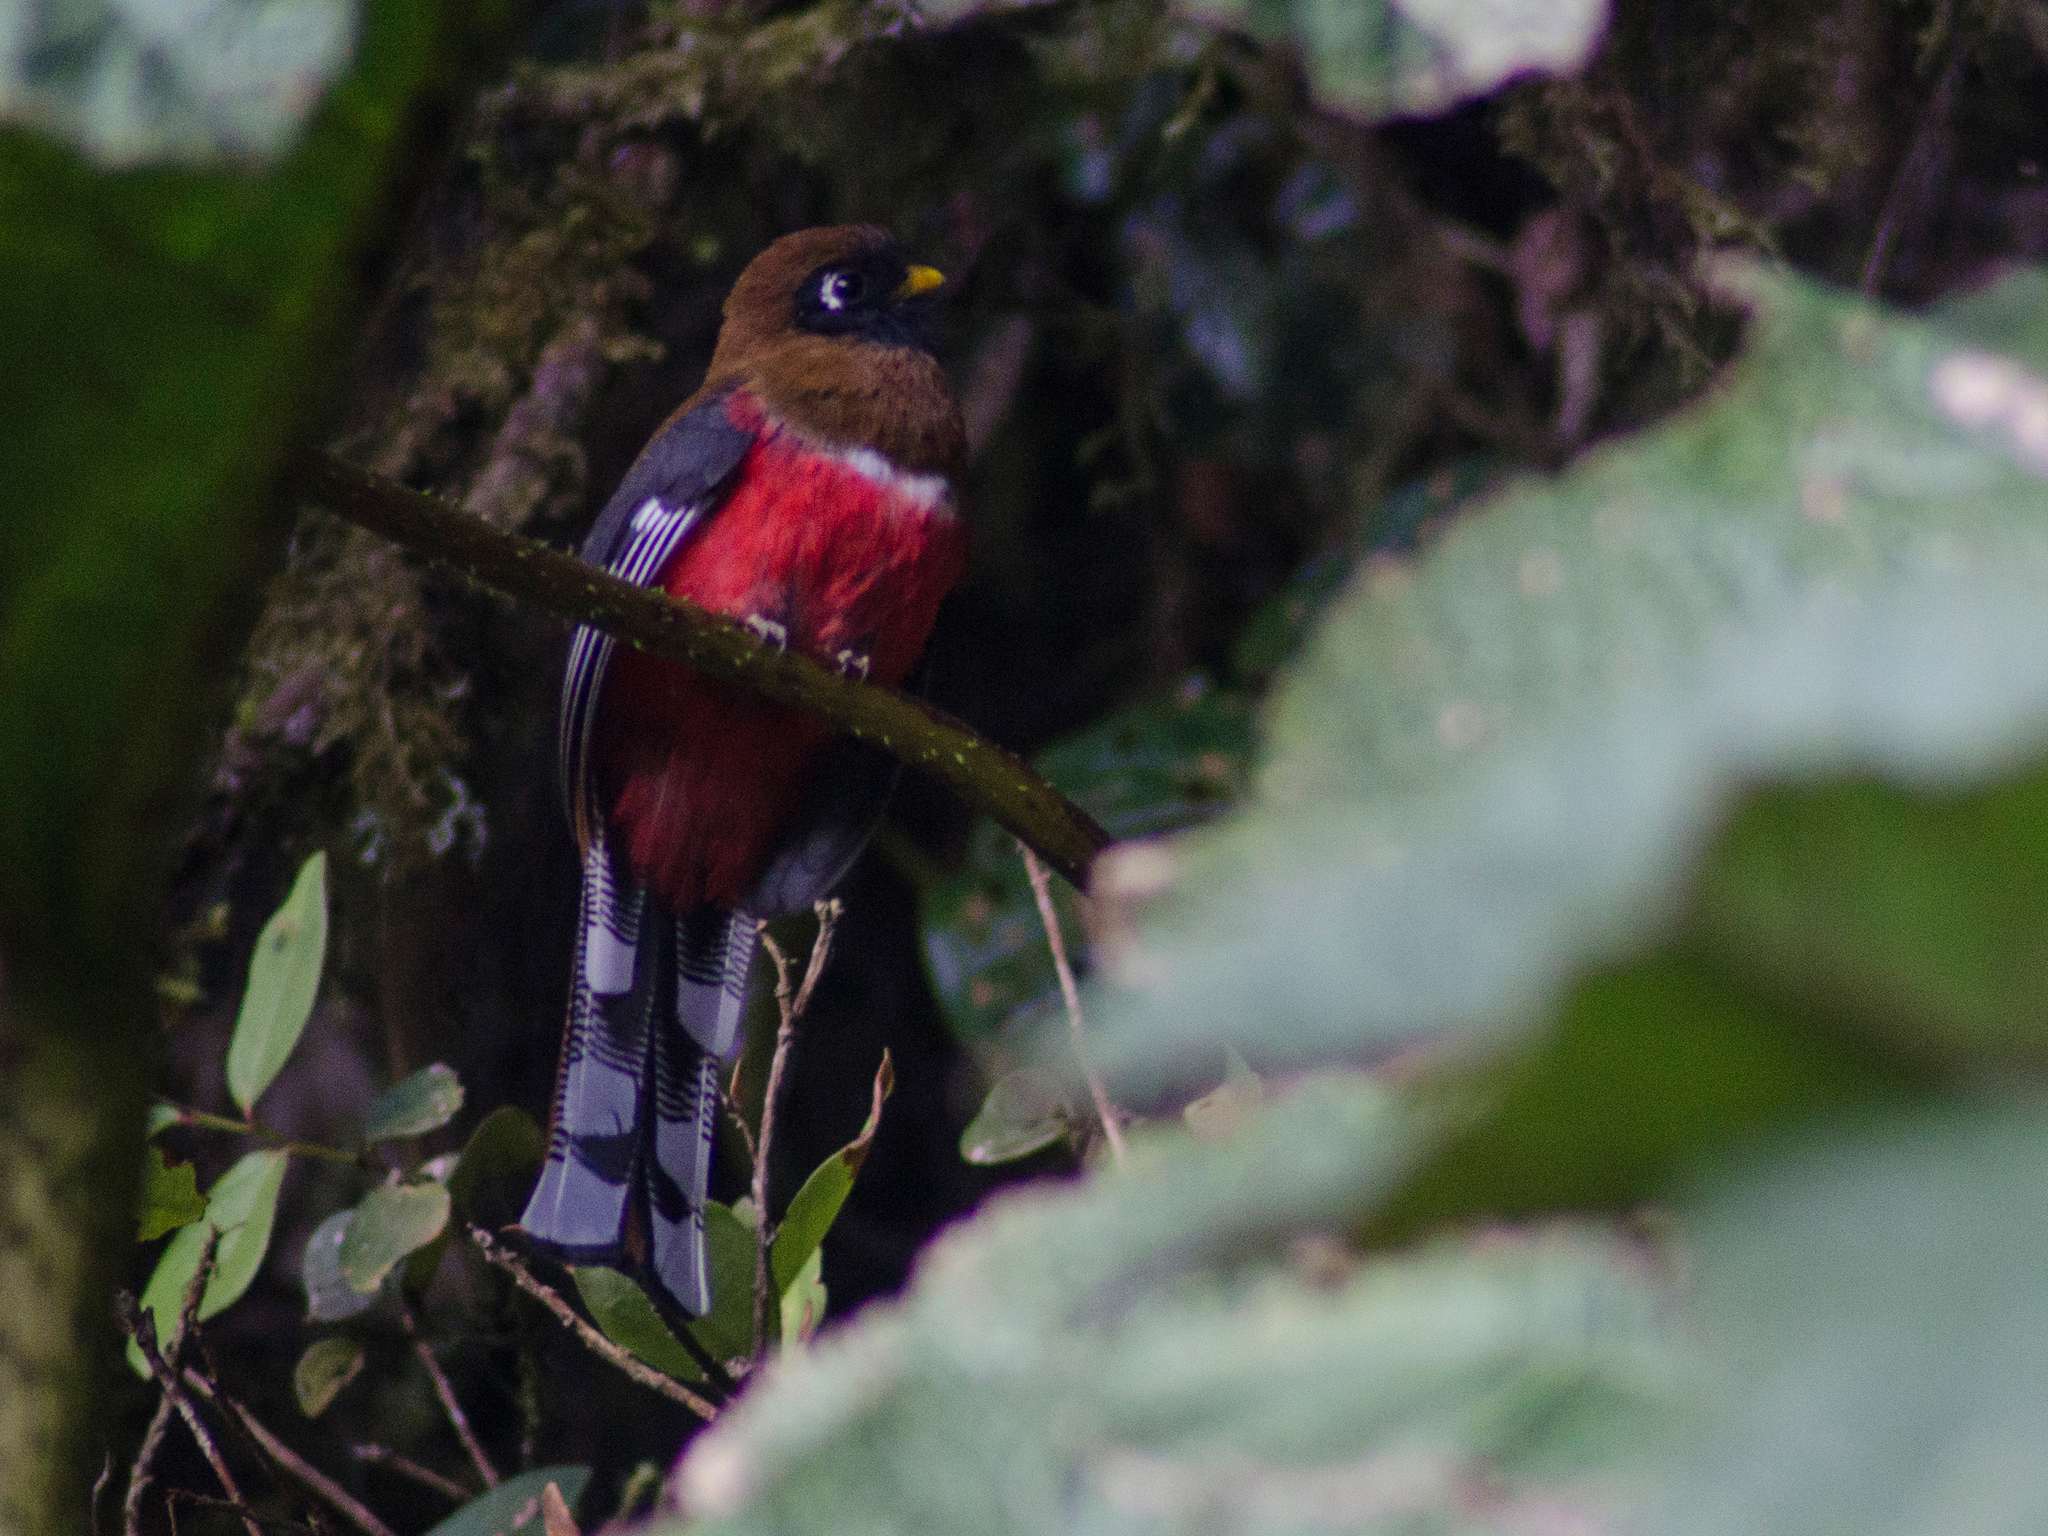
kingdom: Animalia
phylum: Chordata
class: Aves
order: Trogoniformes
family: Trogonidae
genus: Trogon
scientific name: Trogon personatus
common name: Masked trogon
